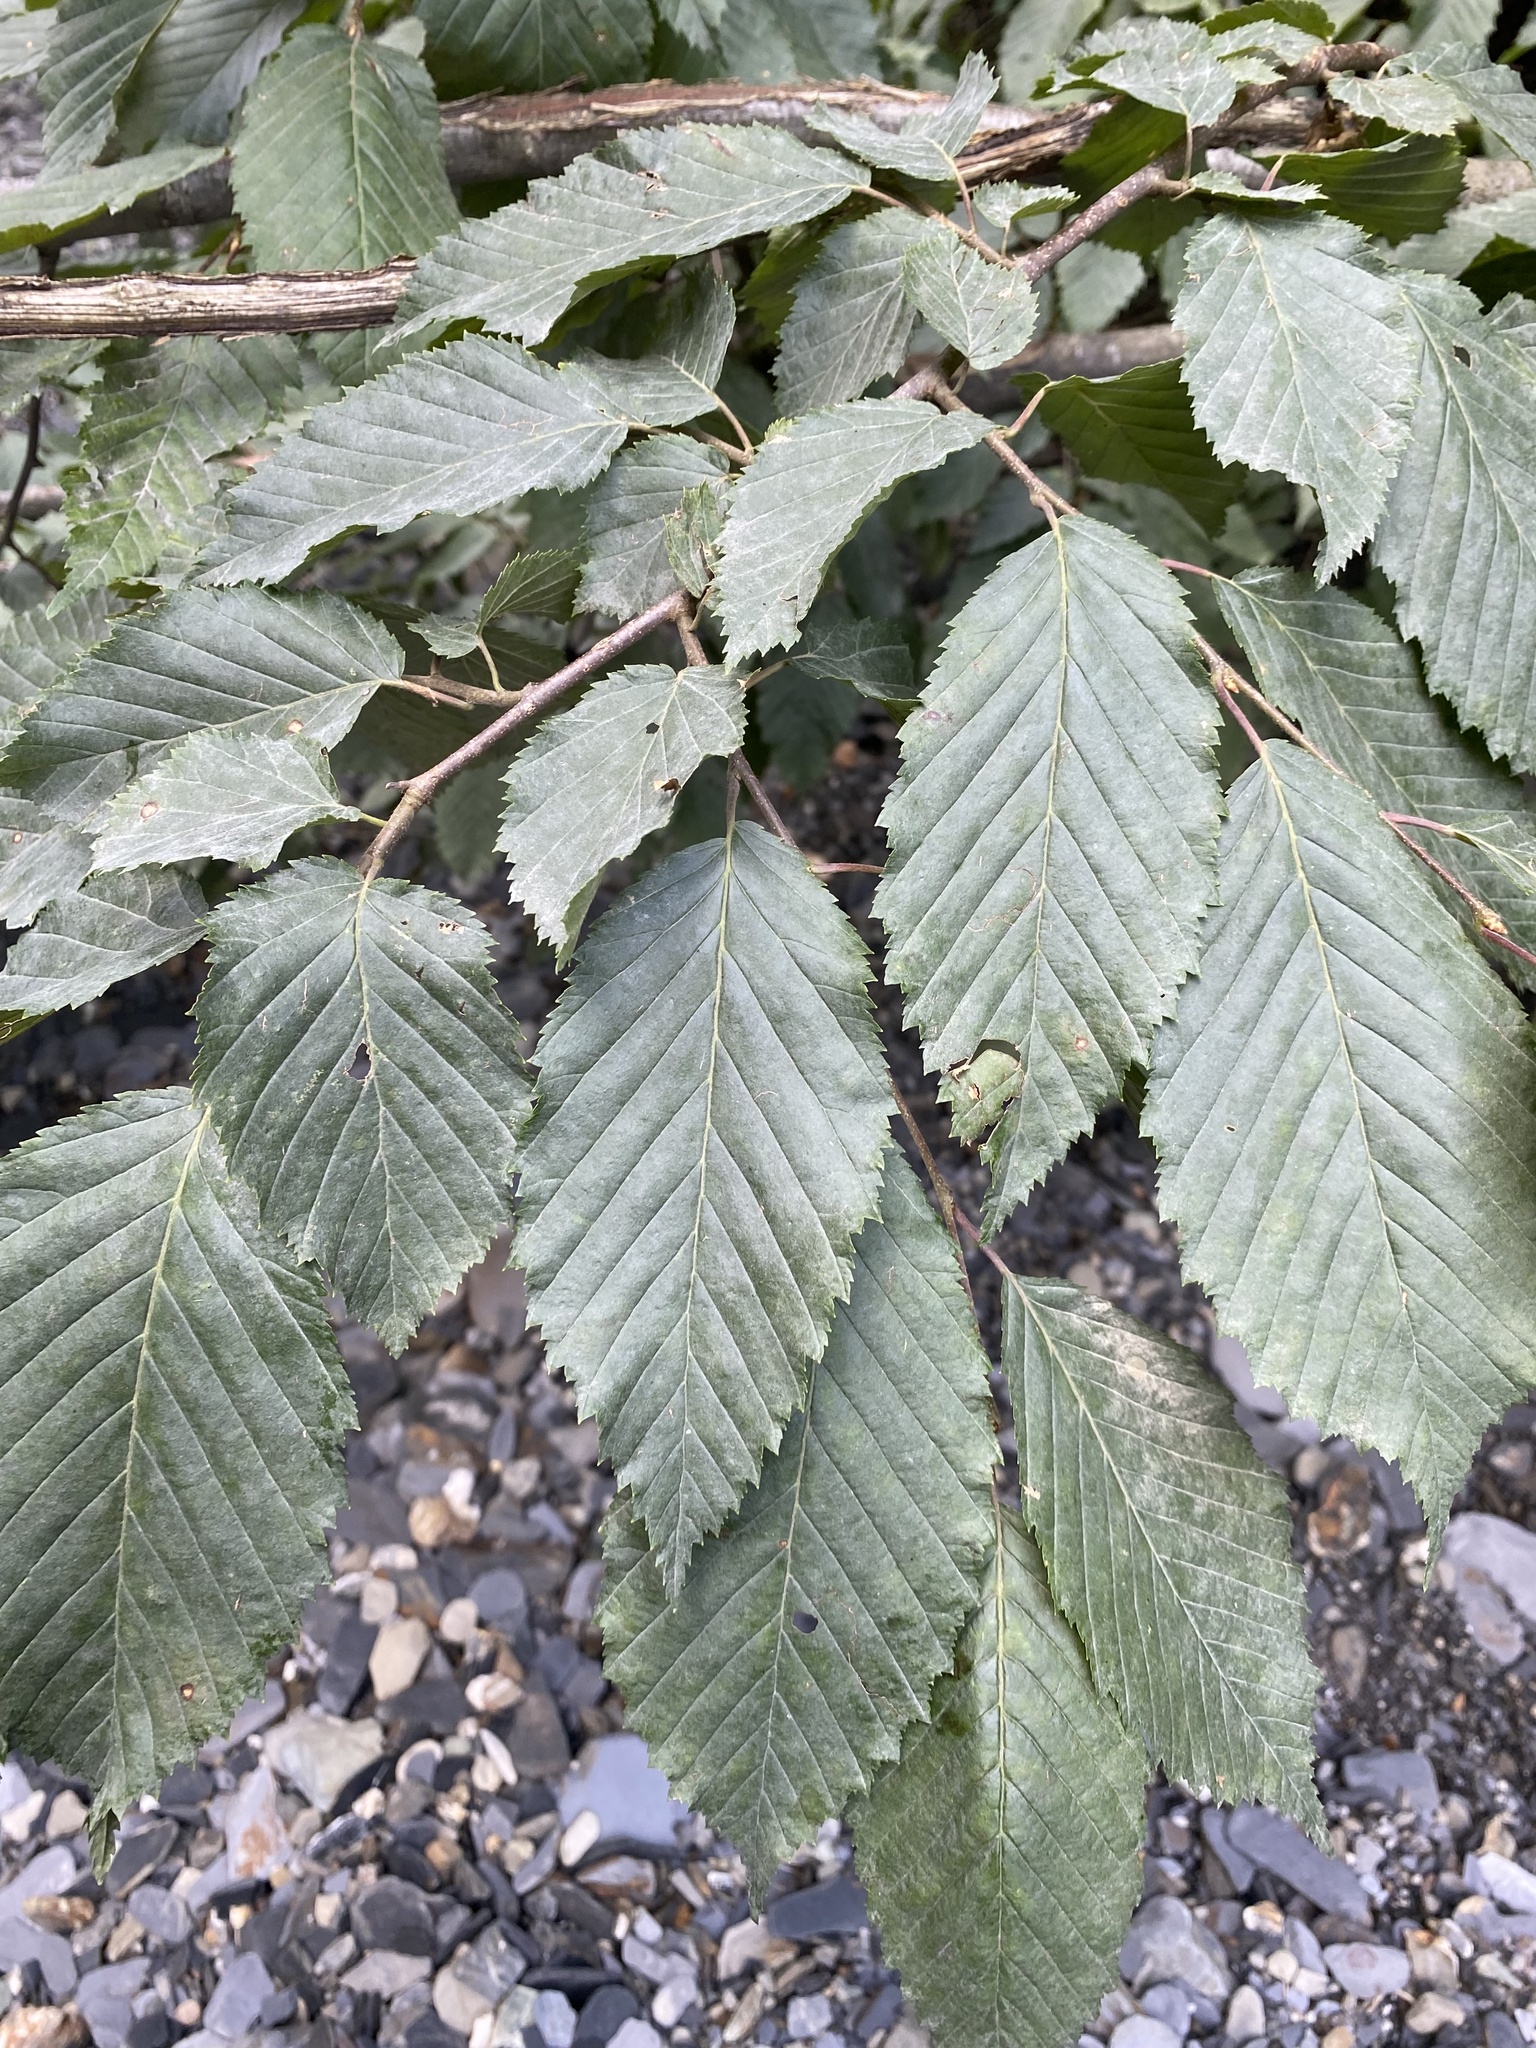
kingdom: Plantae
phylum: Tracheophyta
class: Magnoliopsida
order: Fagales
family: Betulaceae
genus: Carpinus
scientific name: Carpinus betulus
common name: Hornbeam
